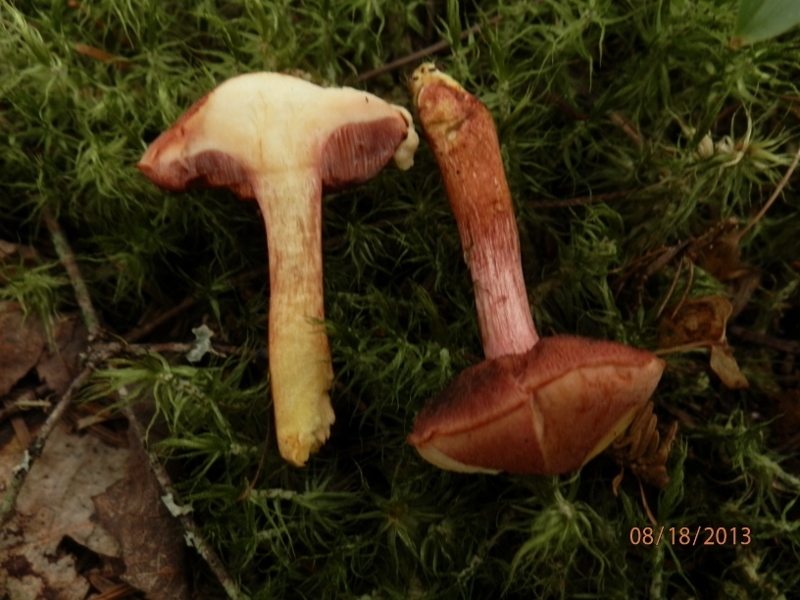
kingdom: Fungi
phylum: Basidiomycota
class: Agaricomycetes
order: Boletales
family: Boletaceae
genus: Chalciporus
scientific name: Chalciporus rubinellus
